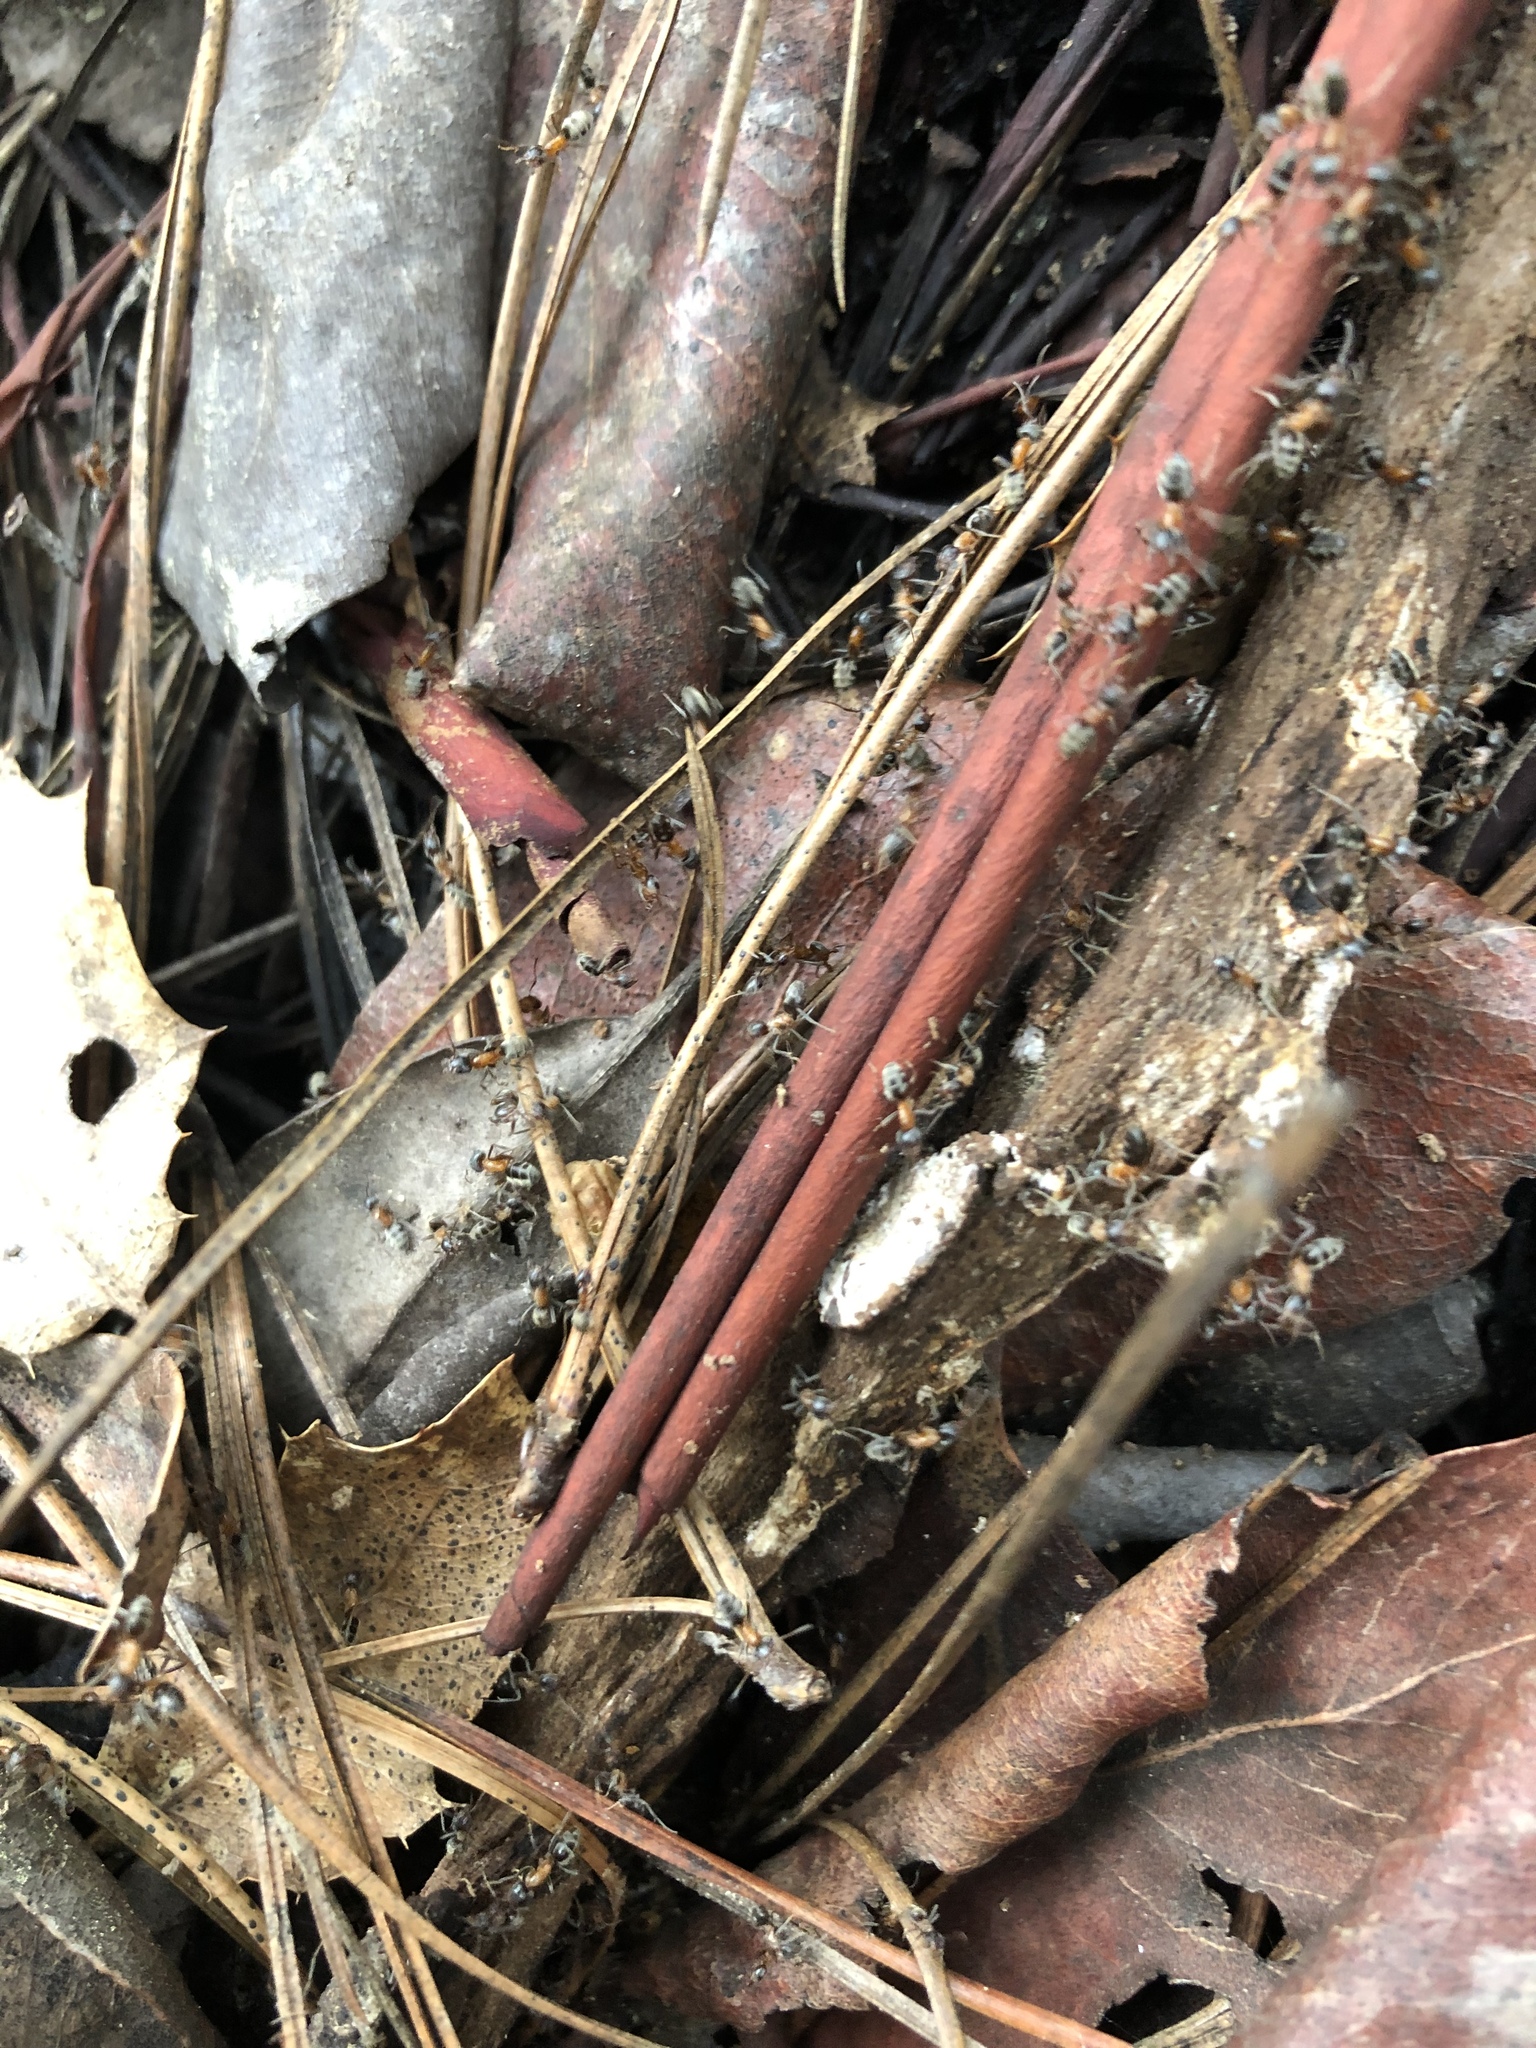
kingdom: Animalia
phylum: Arthropoda
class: Insecta
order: Hymenoptera
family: Formicidae
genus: Liometopum
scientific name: Liometopum occidentale
